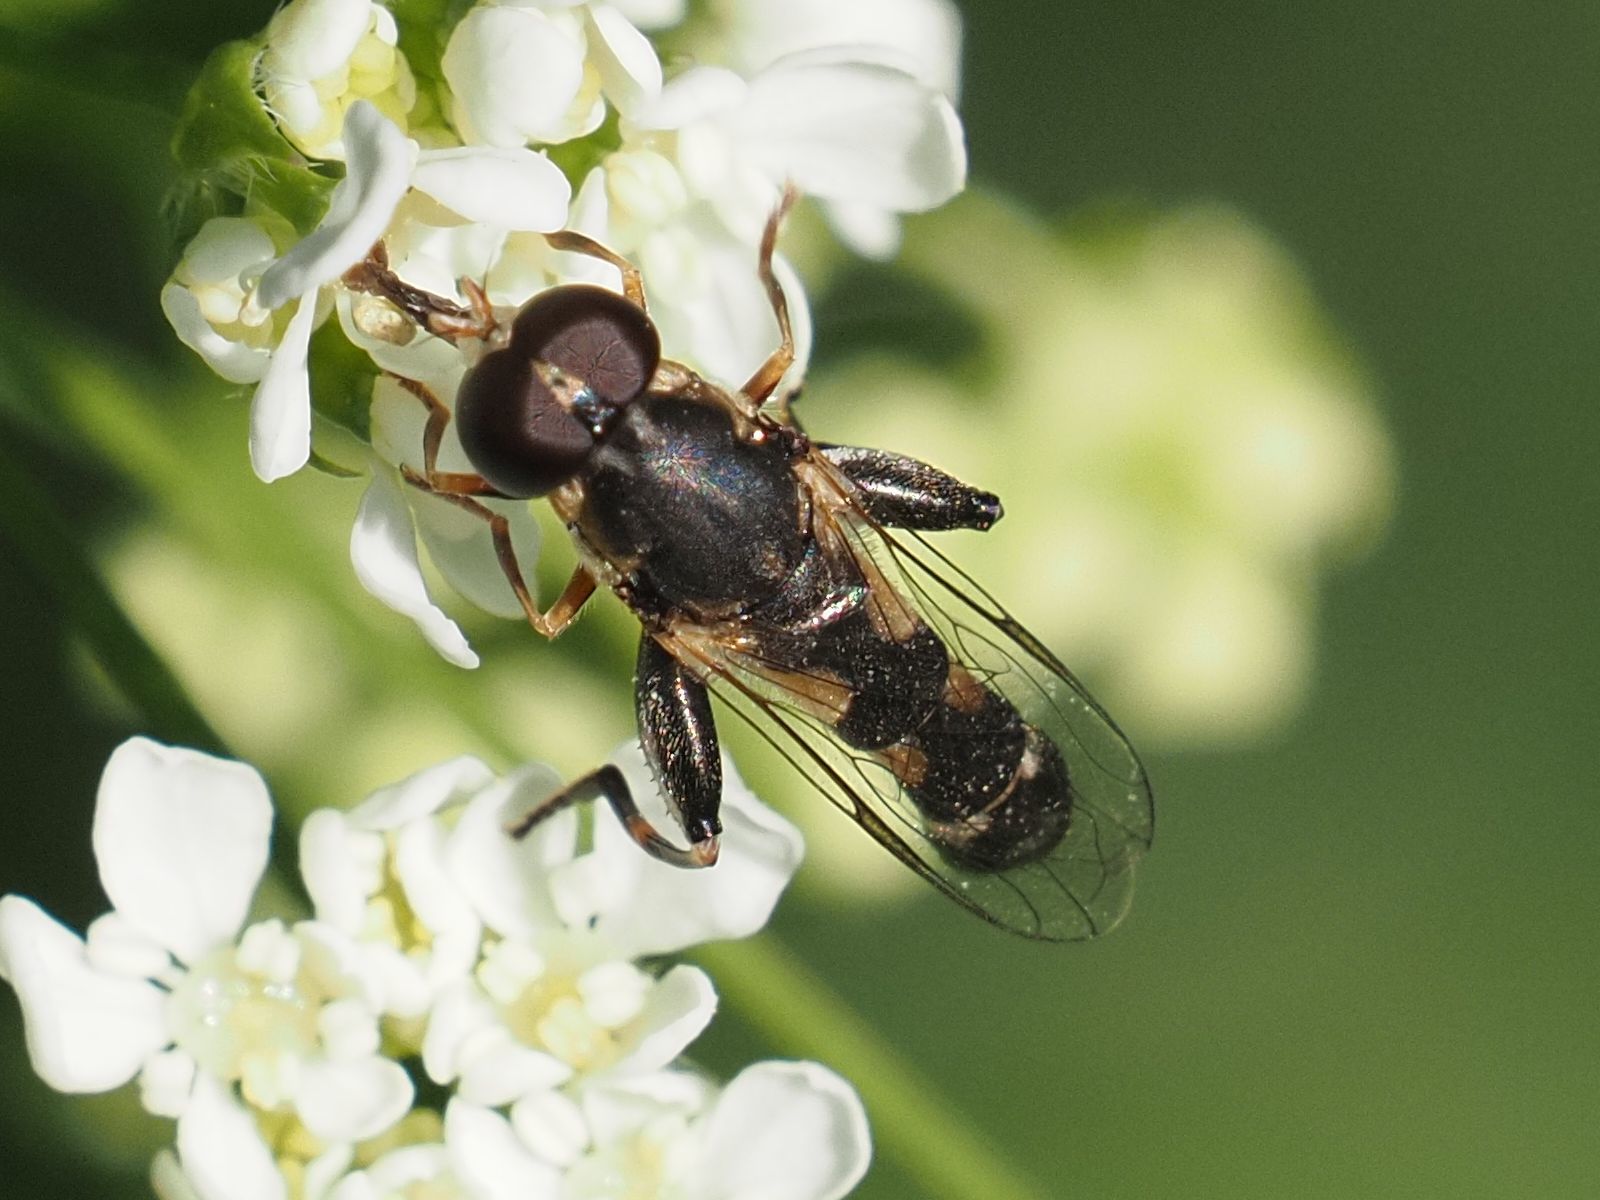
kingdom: Animalia
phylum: Arthropoda
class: Insecta
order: Diptera
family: Syrphidae
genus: Syritta
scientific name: Syritta pipiens
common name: Hover fly
